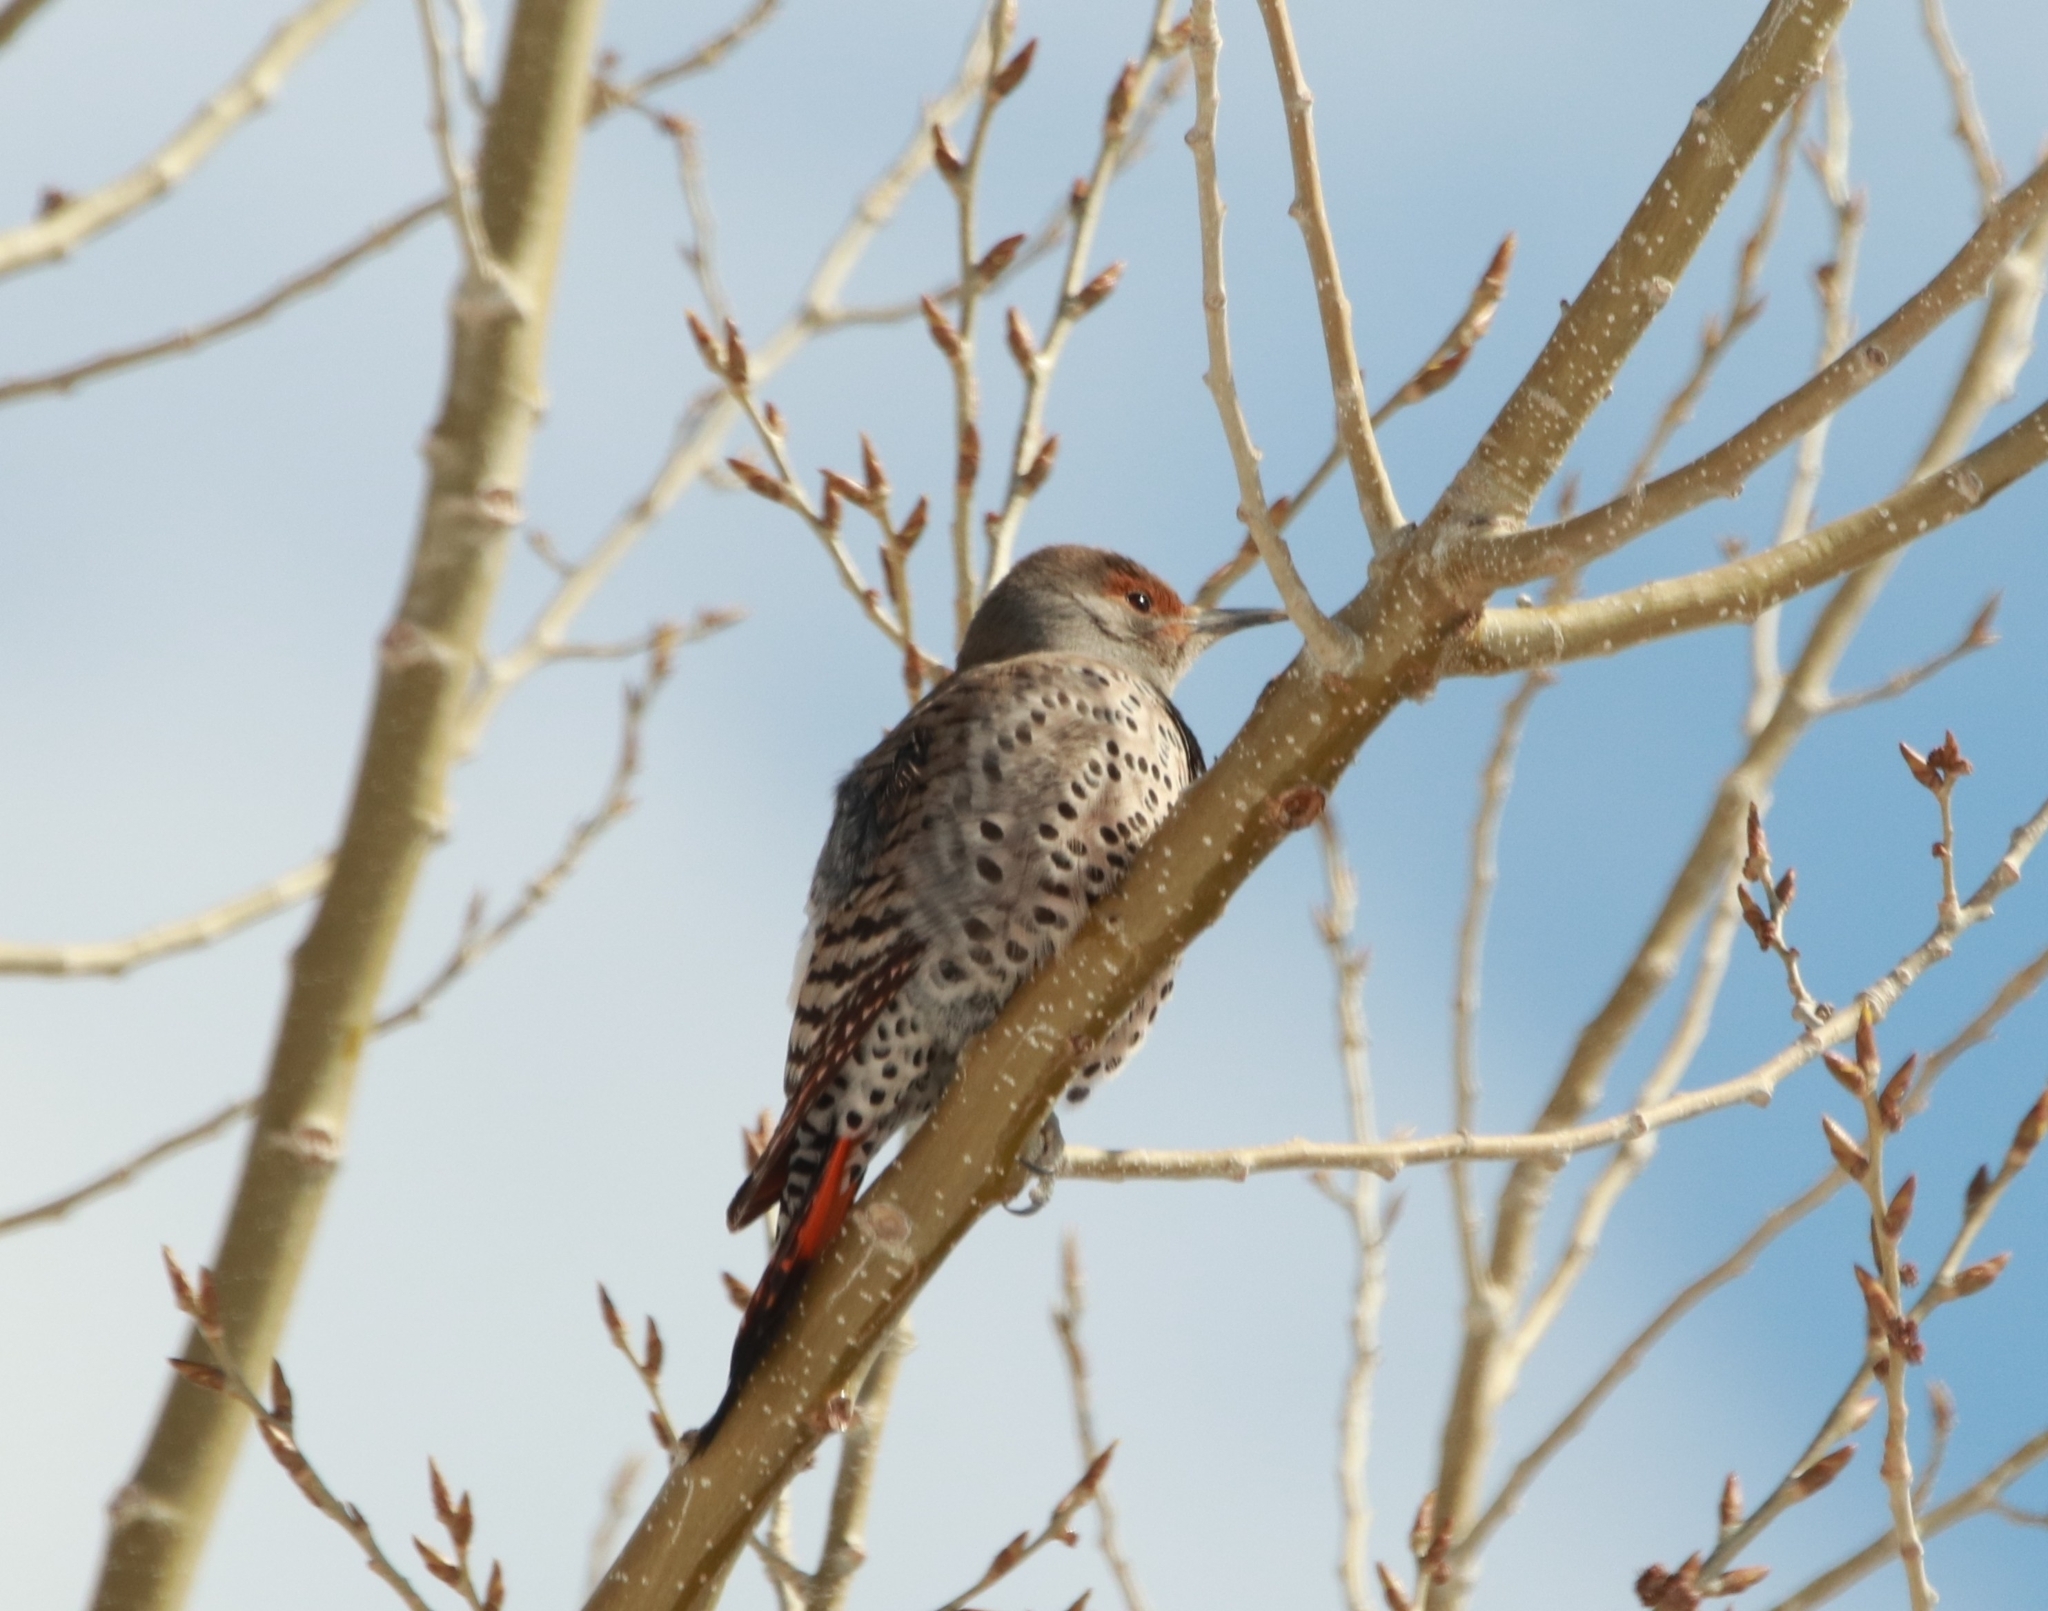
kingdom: Animalia
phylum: Chordata
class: Aves
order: Piciformes
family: Picidae
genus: Colaptes
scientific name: Colaptes auratus
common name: Northern flicker
